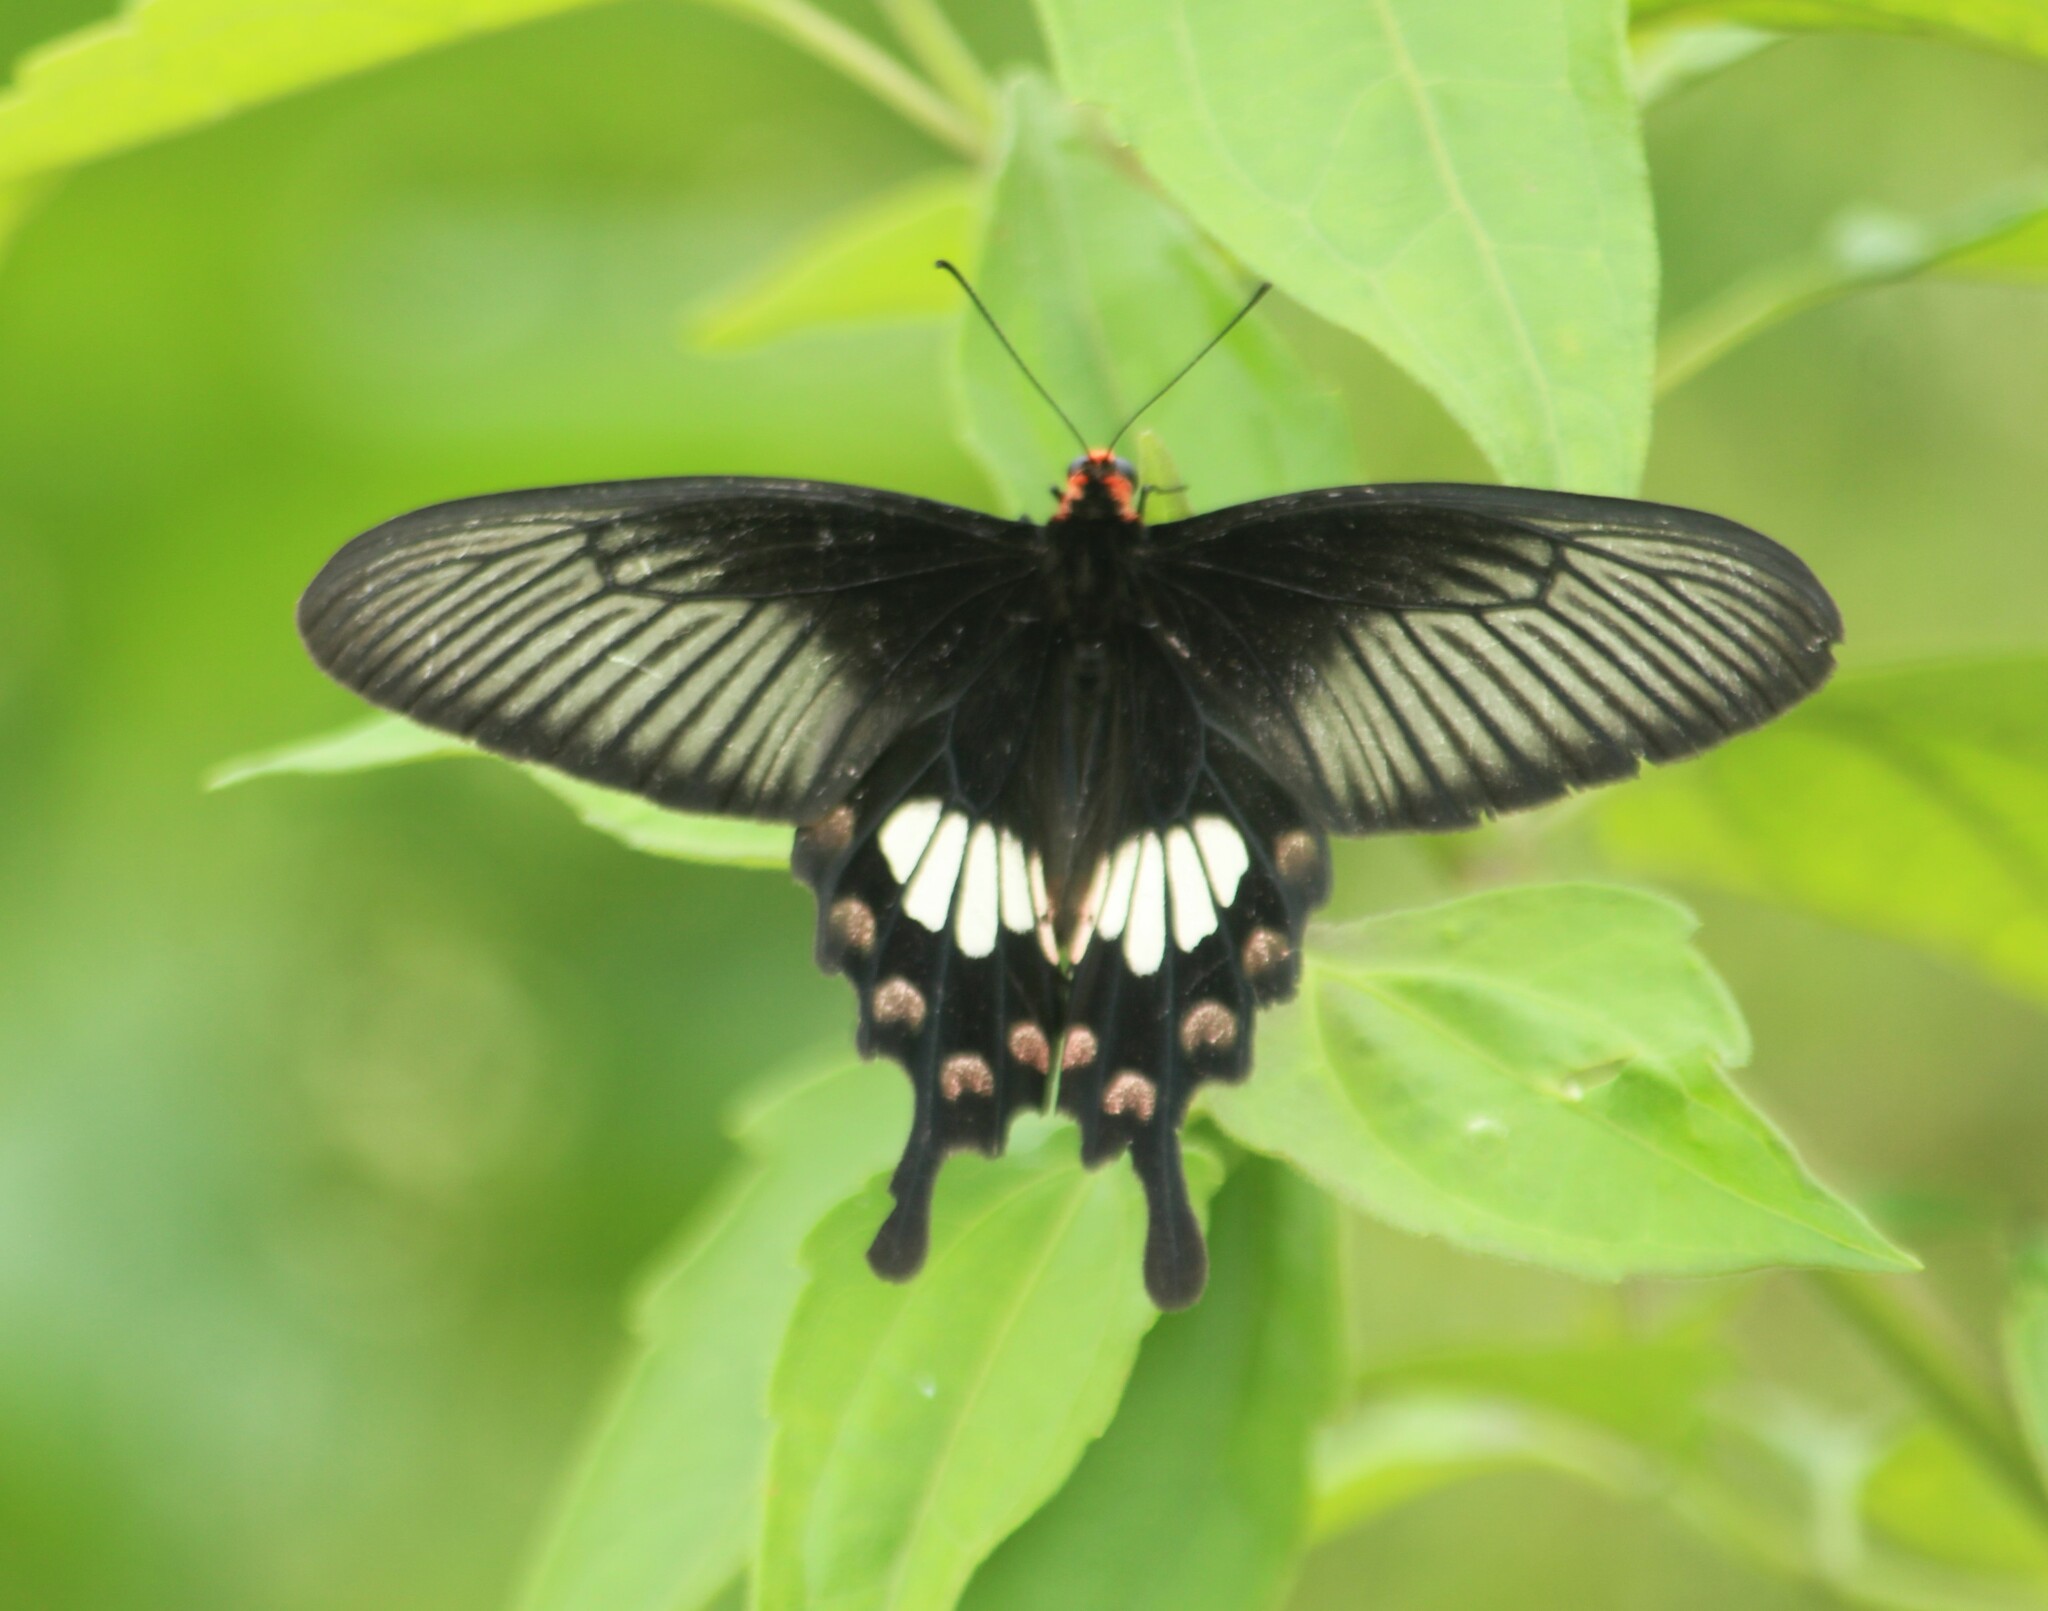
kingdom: Animalia
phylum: Arthropoda
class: Insecta
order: Lepidoptera
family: Papilionidae
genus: Pachliopta
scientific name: Pachliopta aristolochiae
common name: Common rose
